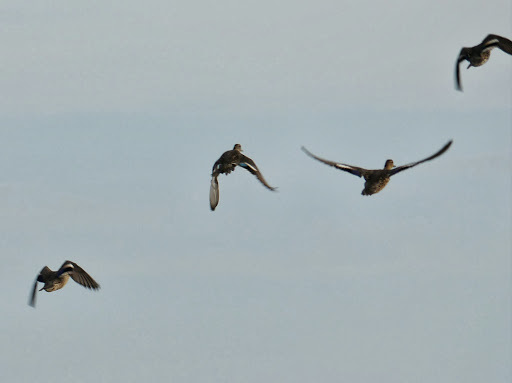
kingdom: Animalia
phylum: Chordata
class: Aves
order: Anseriformes
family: Anatidae
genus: Anas
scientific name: Anas crecca
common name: Eurasian teal
